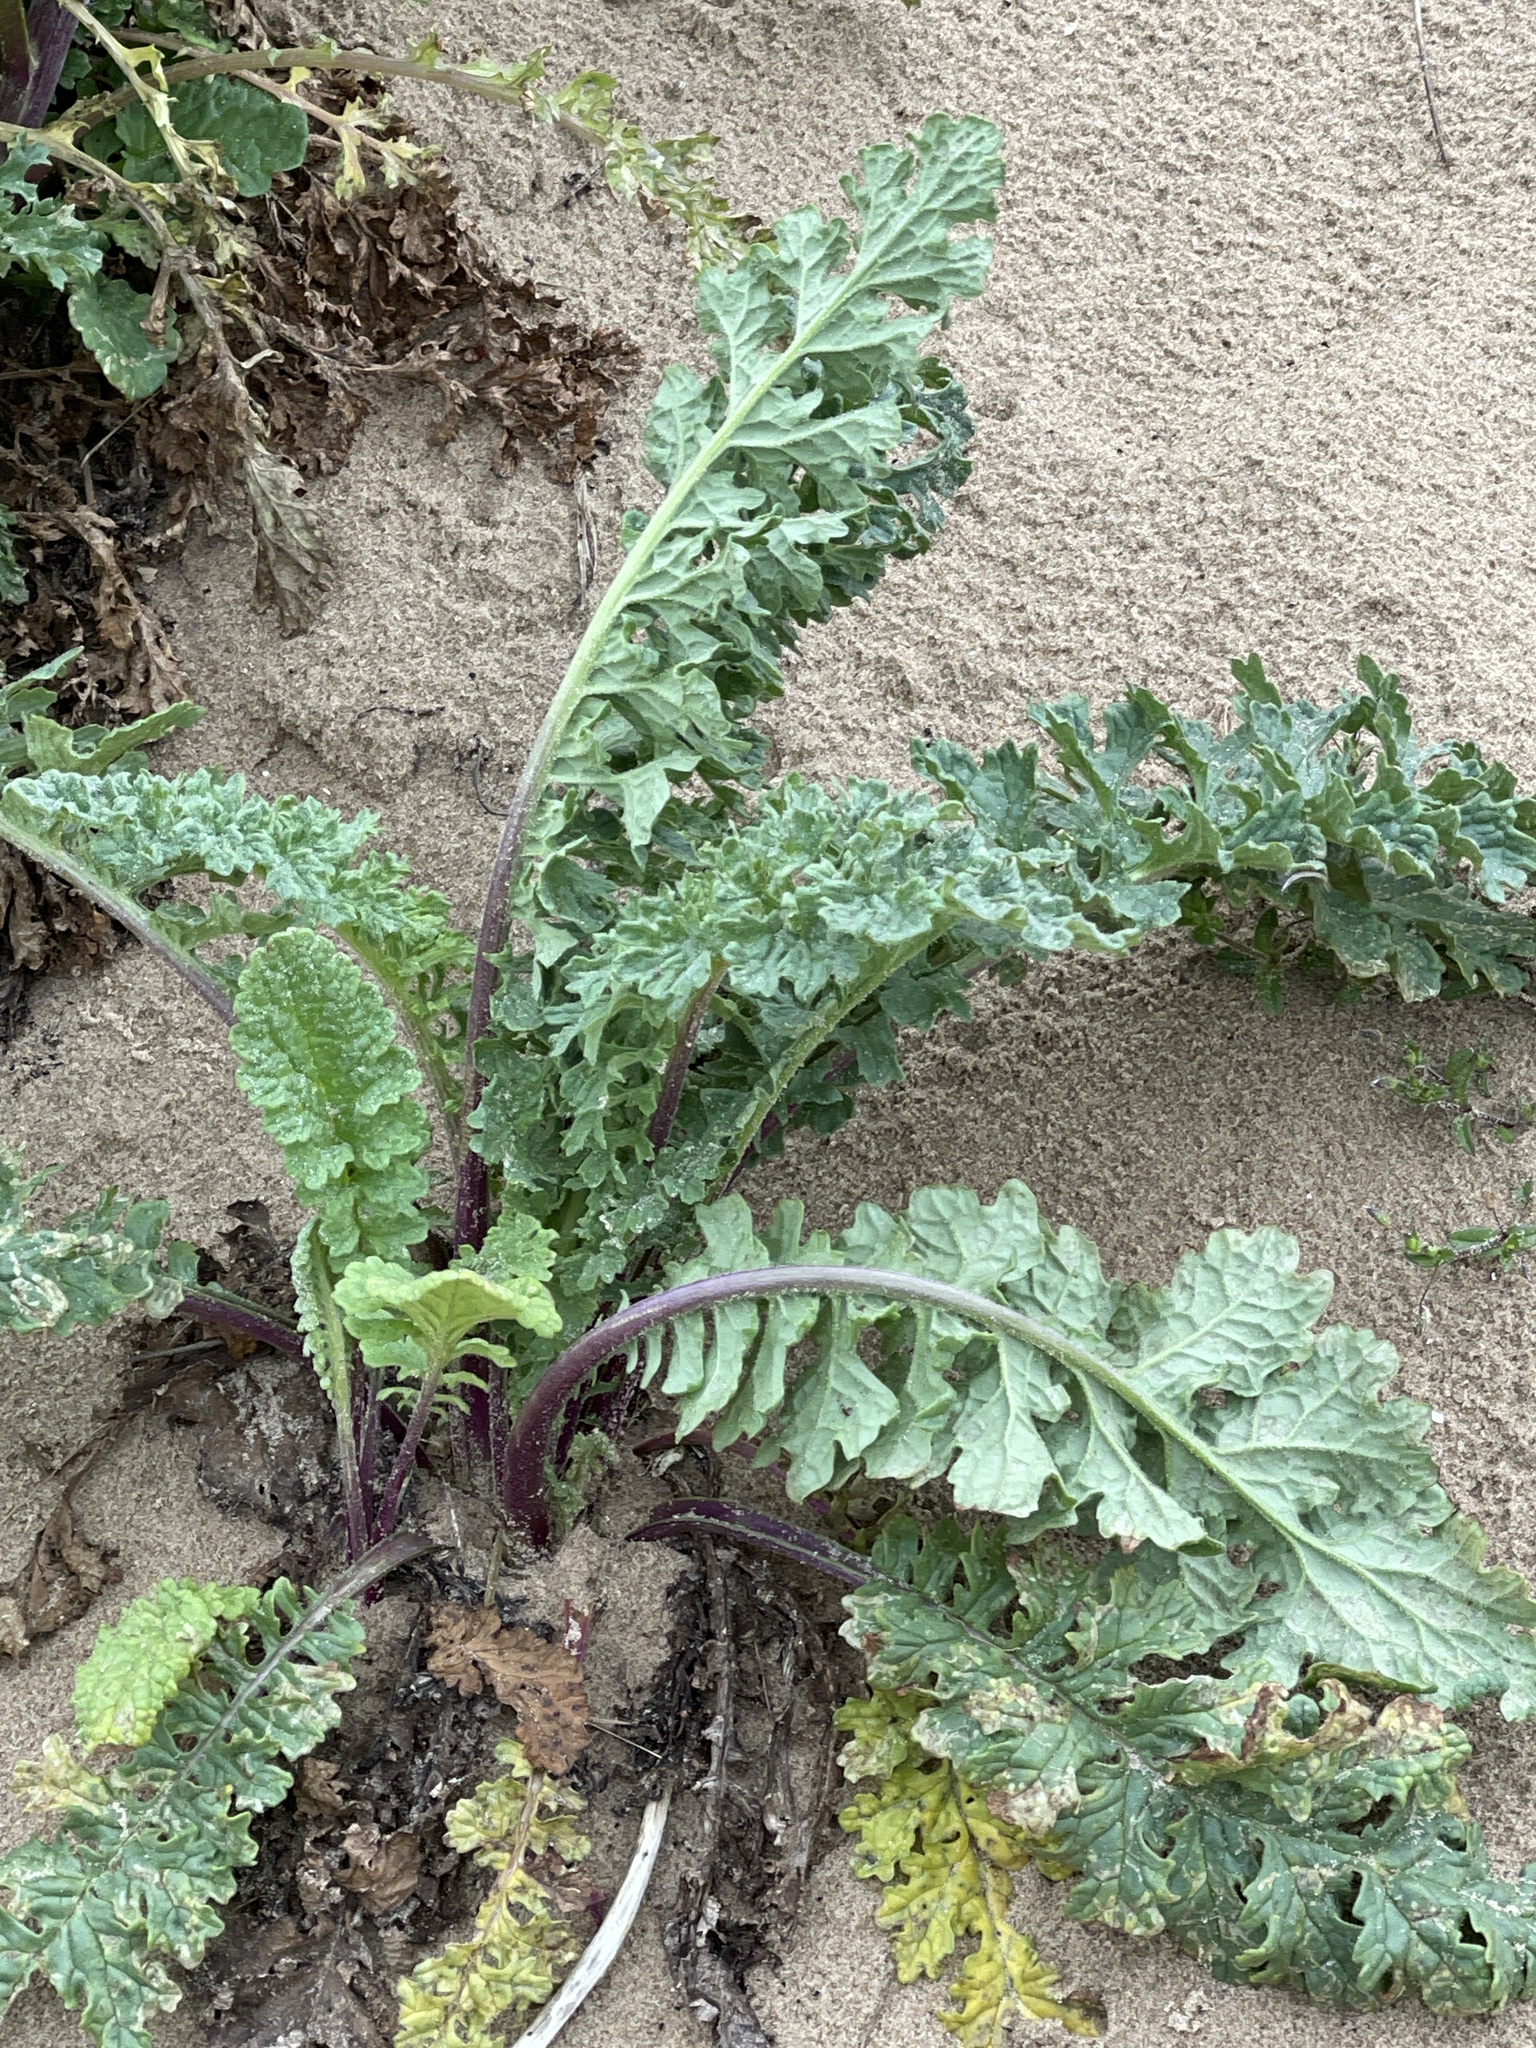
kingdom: Plantae
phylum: Tracheophyta
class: Magnoliopsida
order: Asterales
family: Asteraceae
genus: Jacobaea
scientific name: Jacobaea vulgaris
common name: Stinking willie
